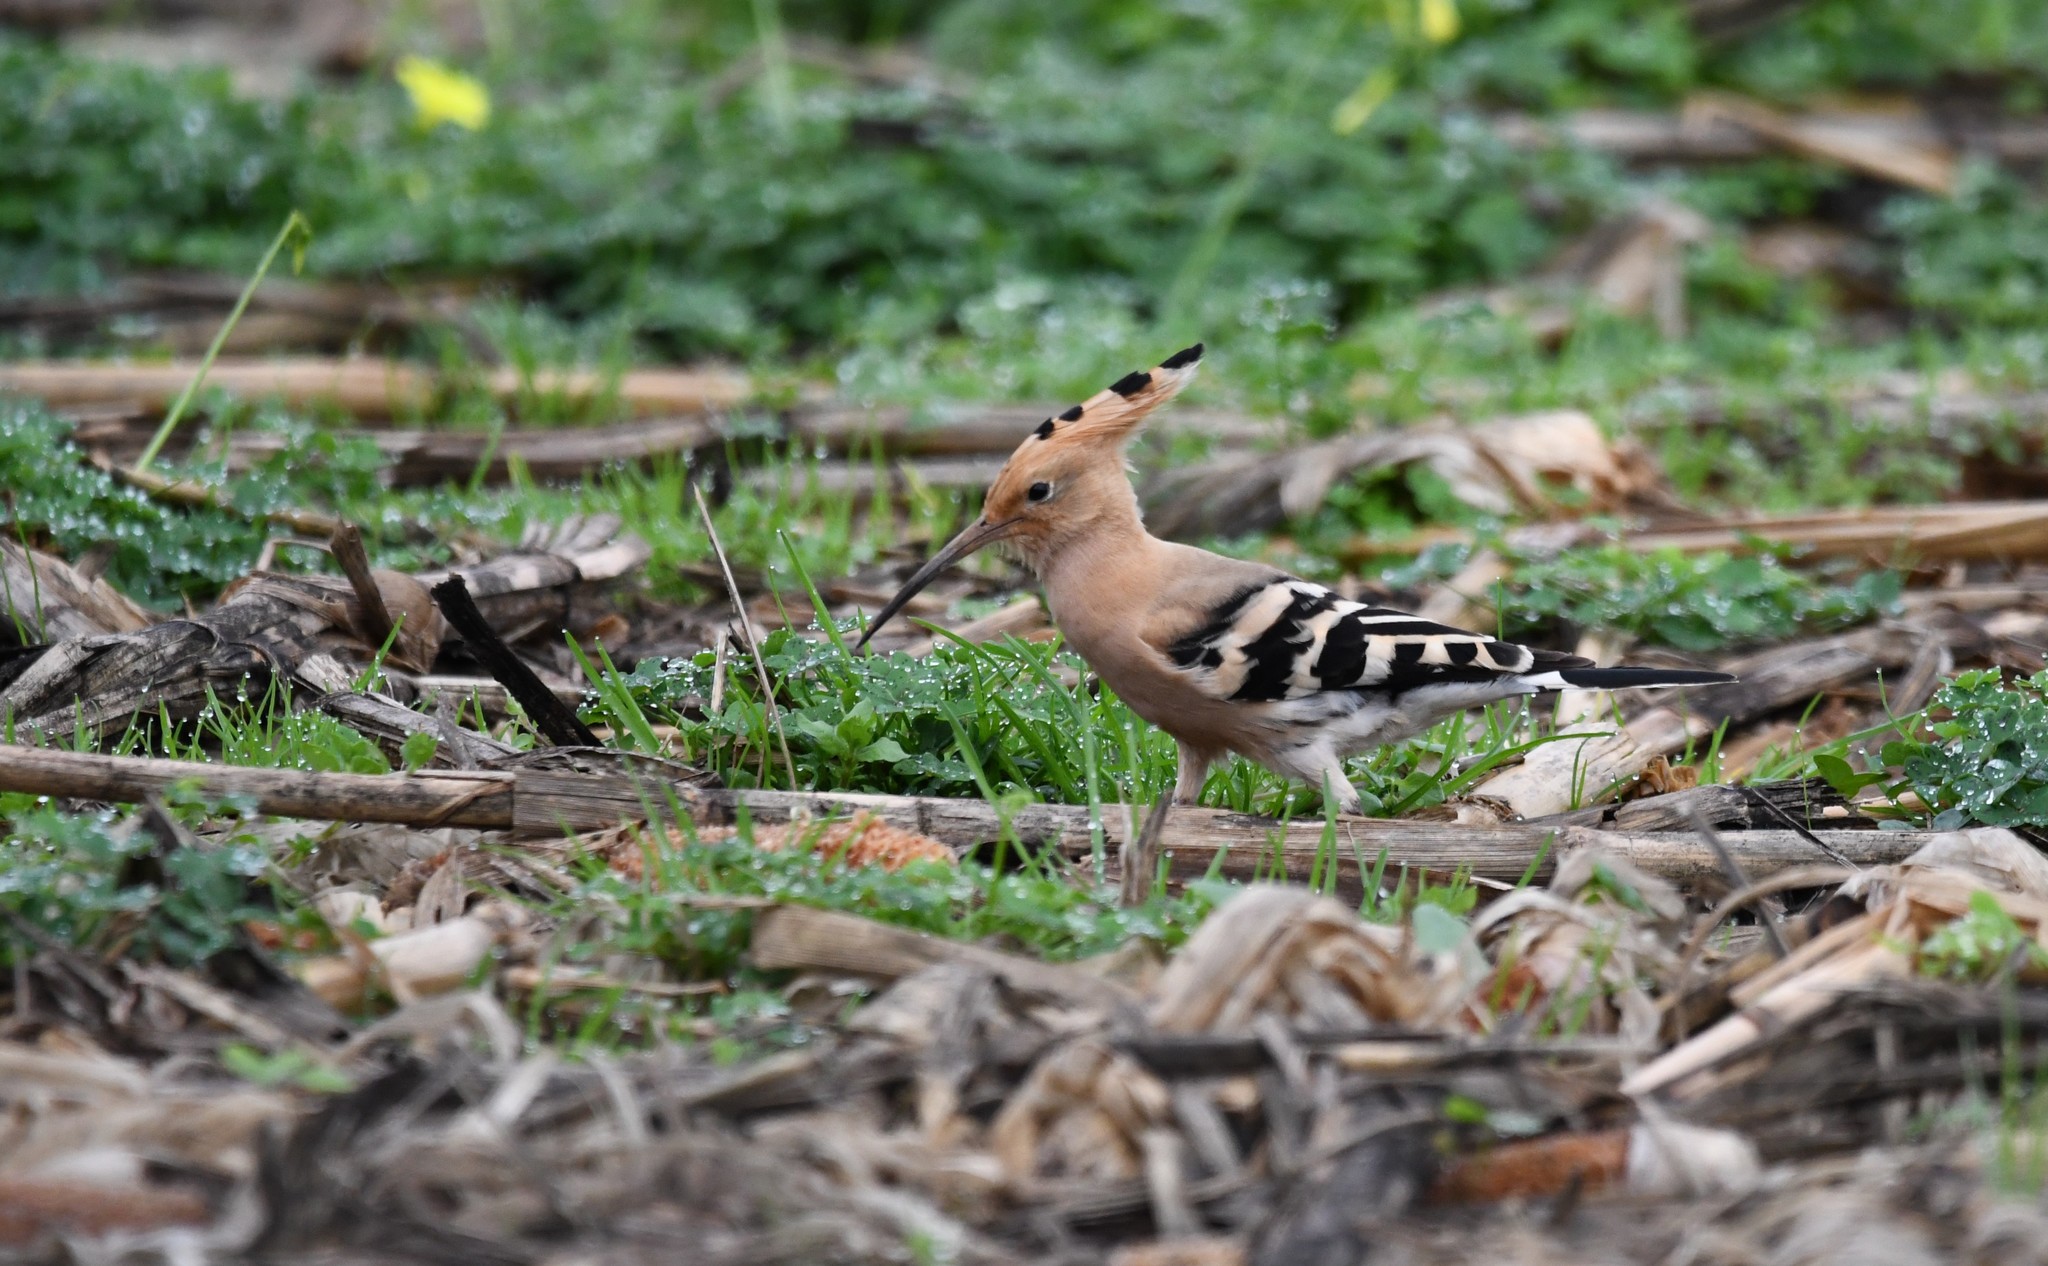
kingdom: Animalia
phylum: Chordata
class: Aves
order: Bucerotiformes
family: Upupidae
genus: Upupa
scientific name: Upupa epops
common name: Eurasian hoopoe
